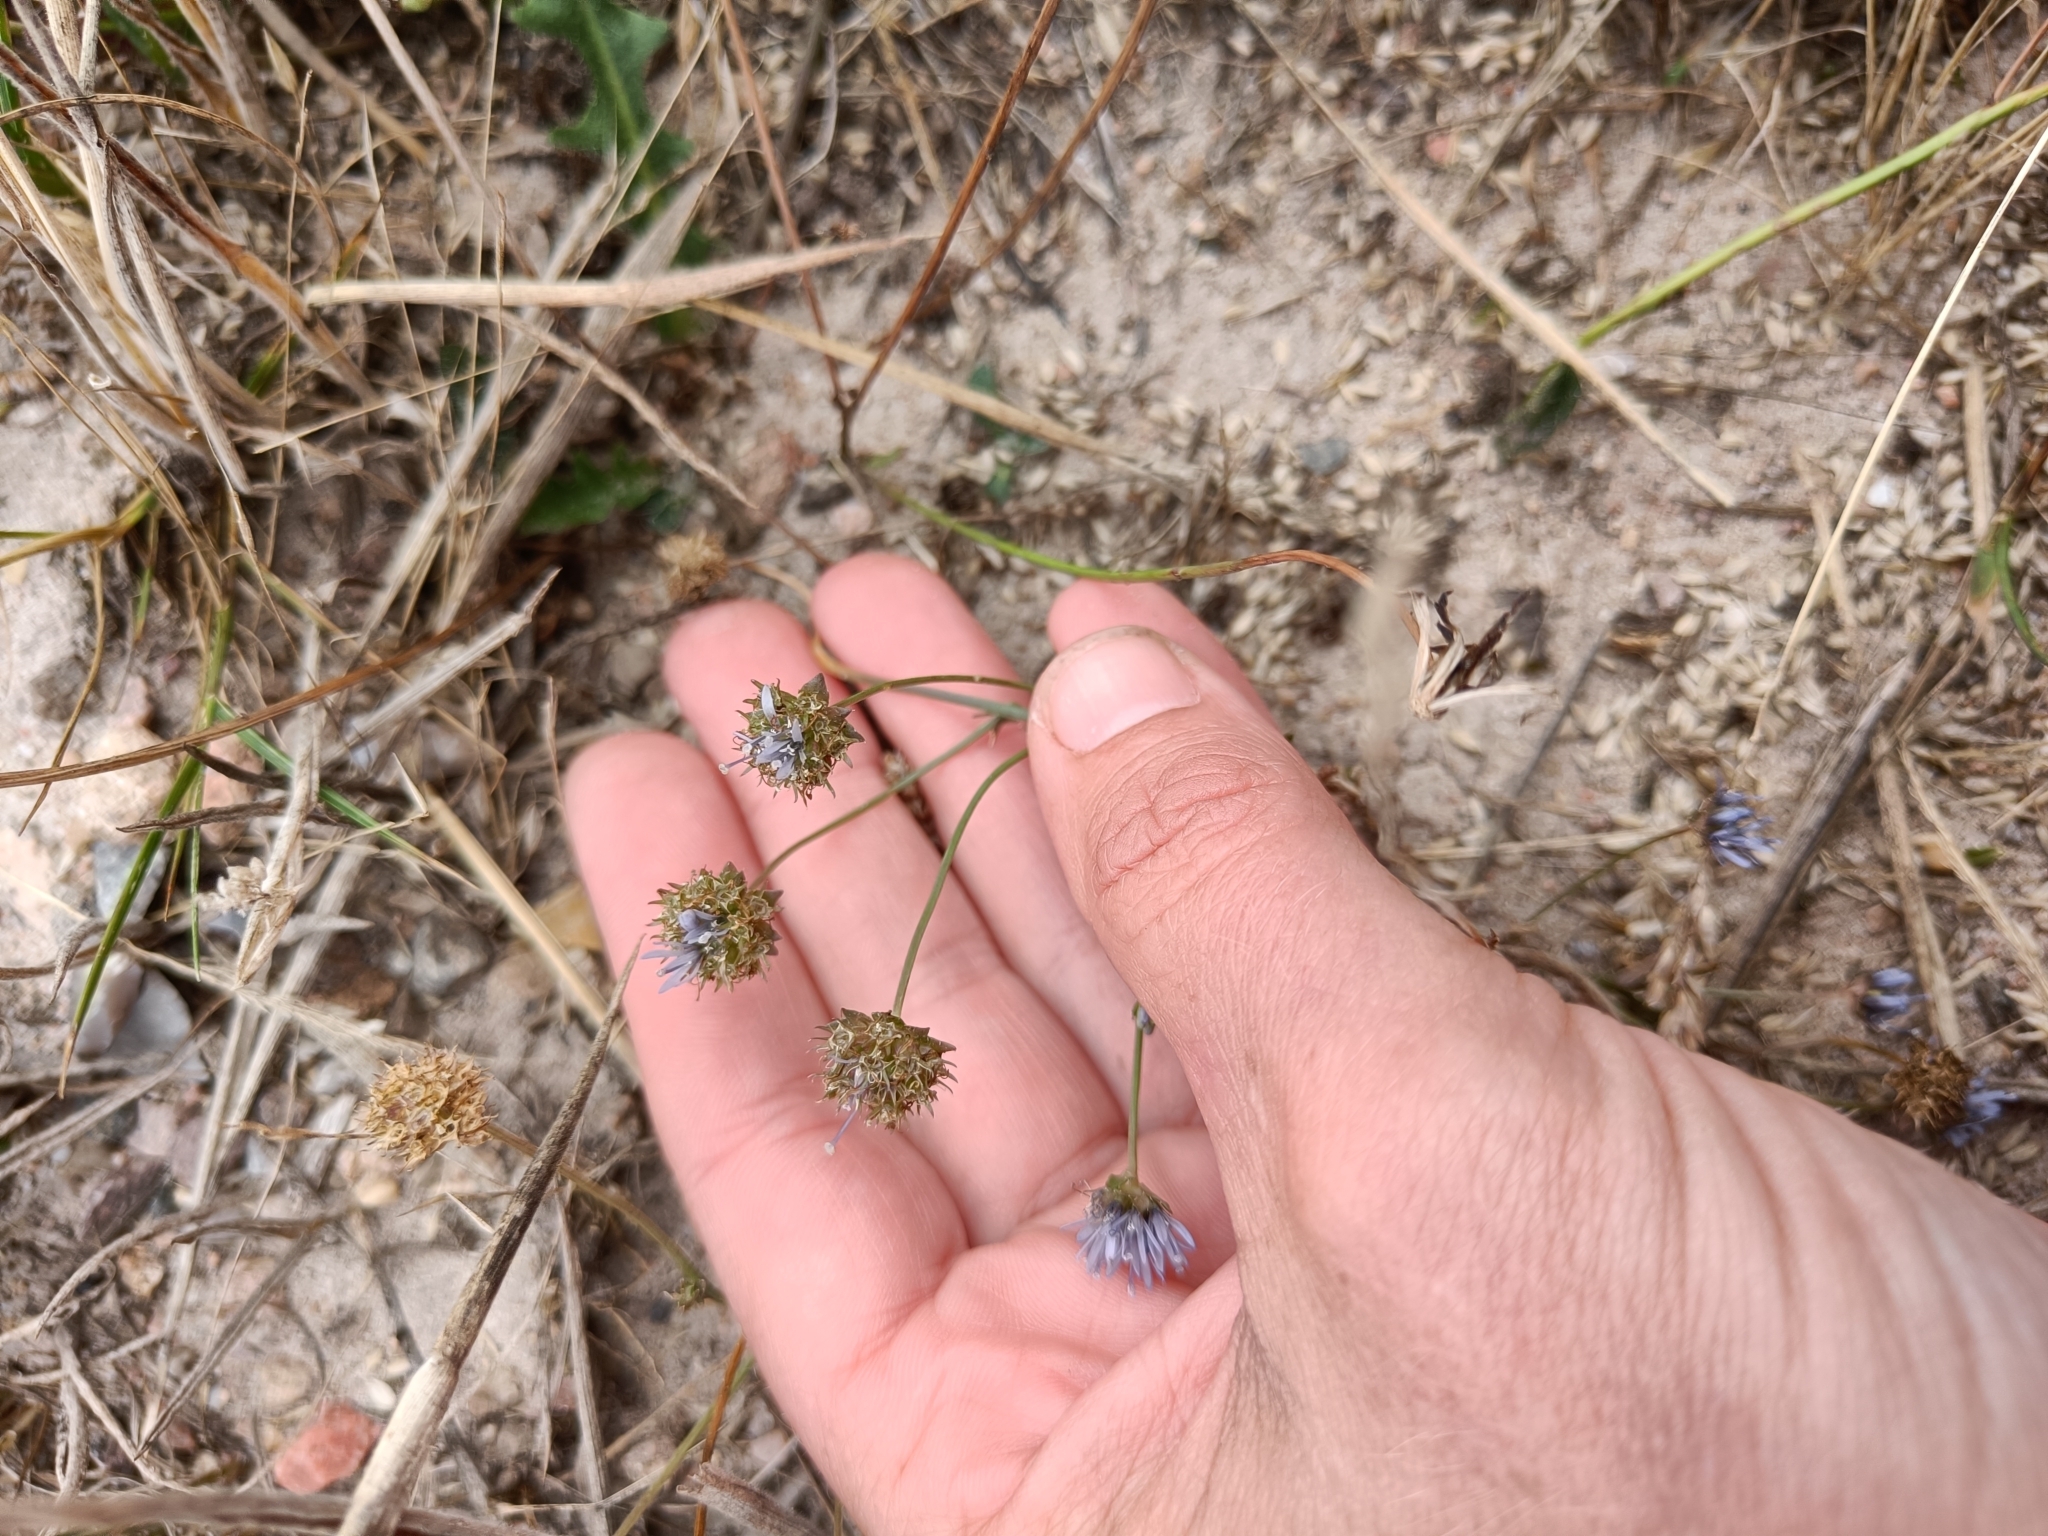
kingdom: Plantae
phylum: Tracheophyta
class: Magnoliopsida
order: Asterales
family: Campanulaceae
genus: Jasione
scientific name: Jasione montana
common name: Sheep's-bit
